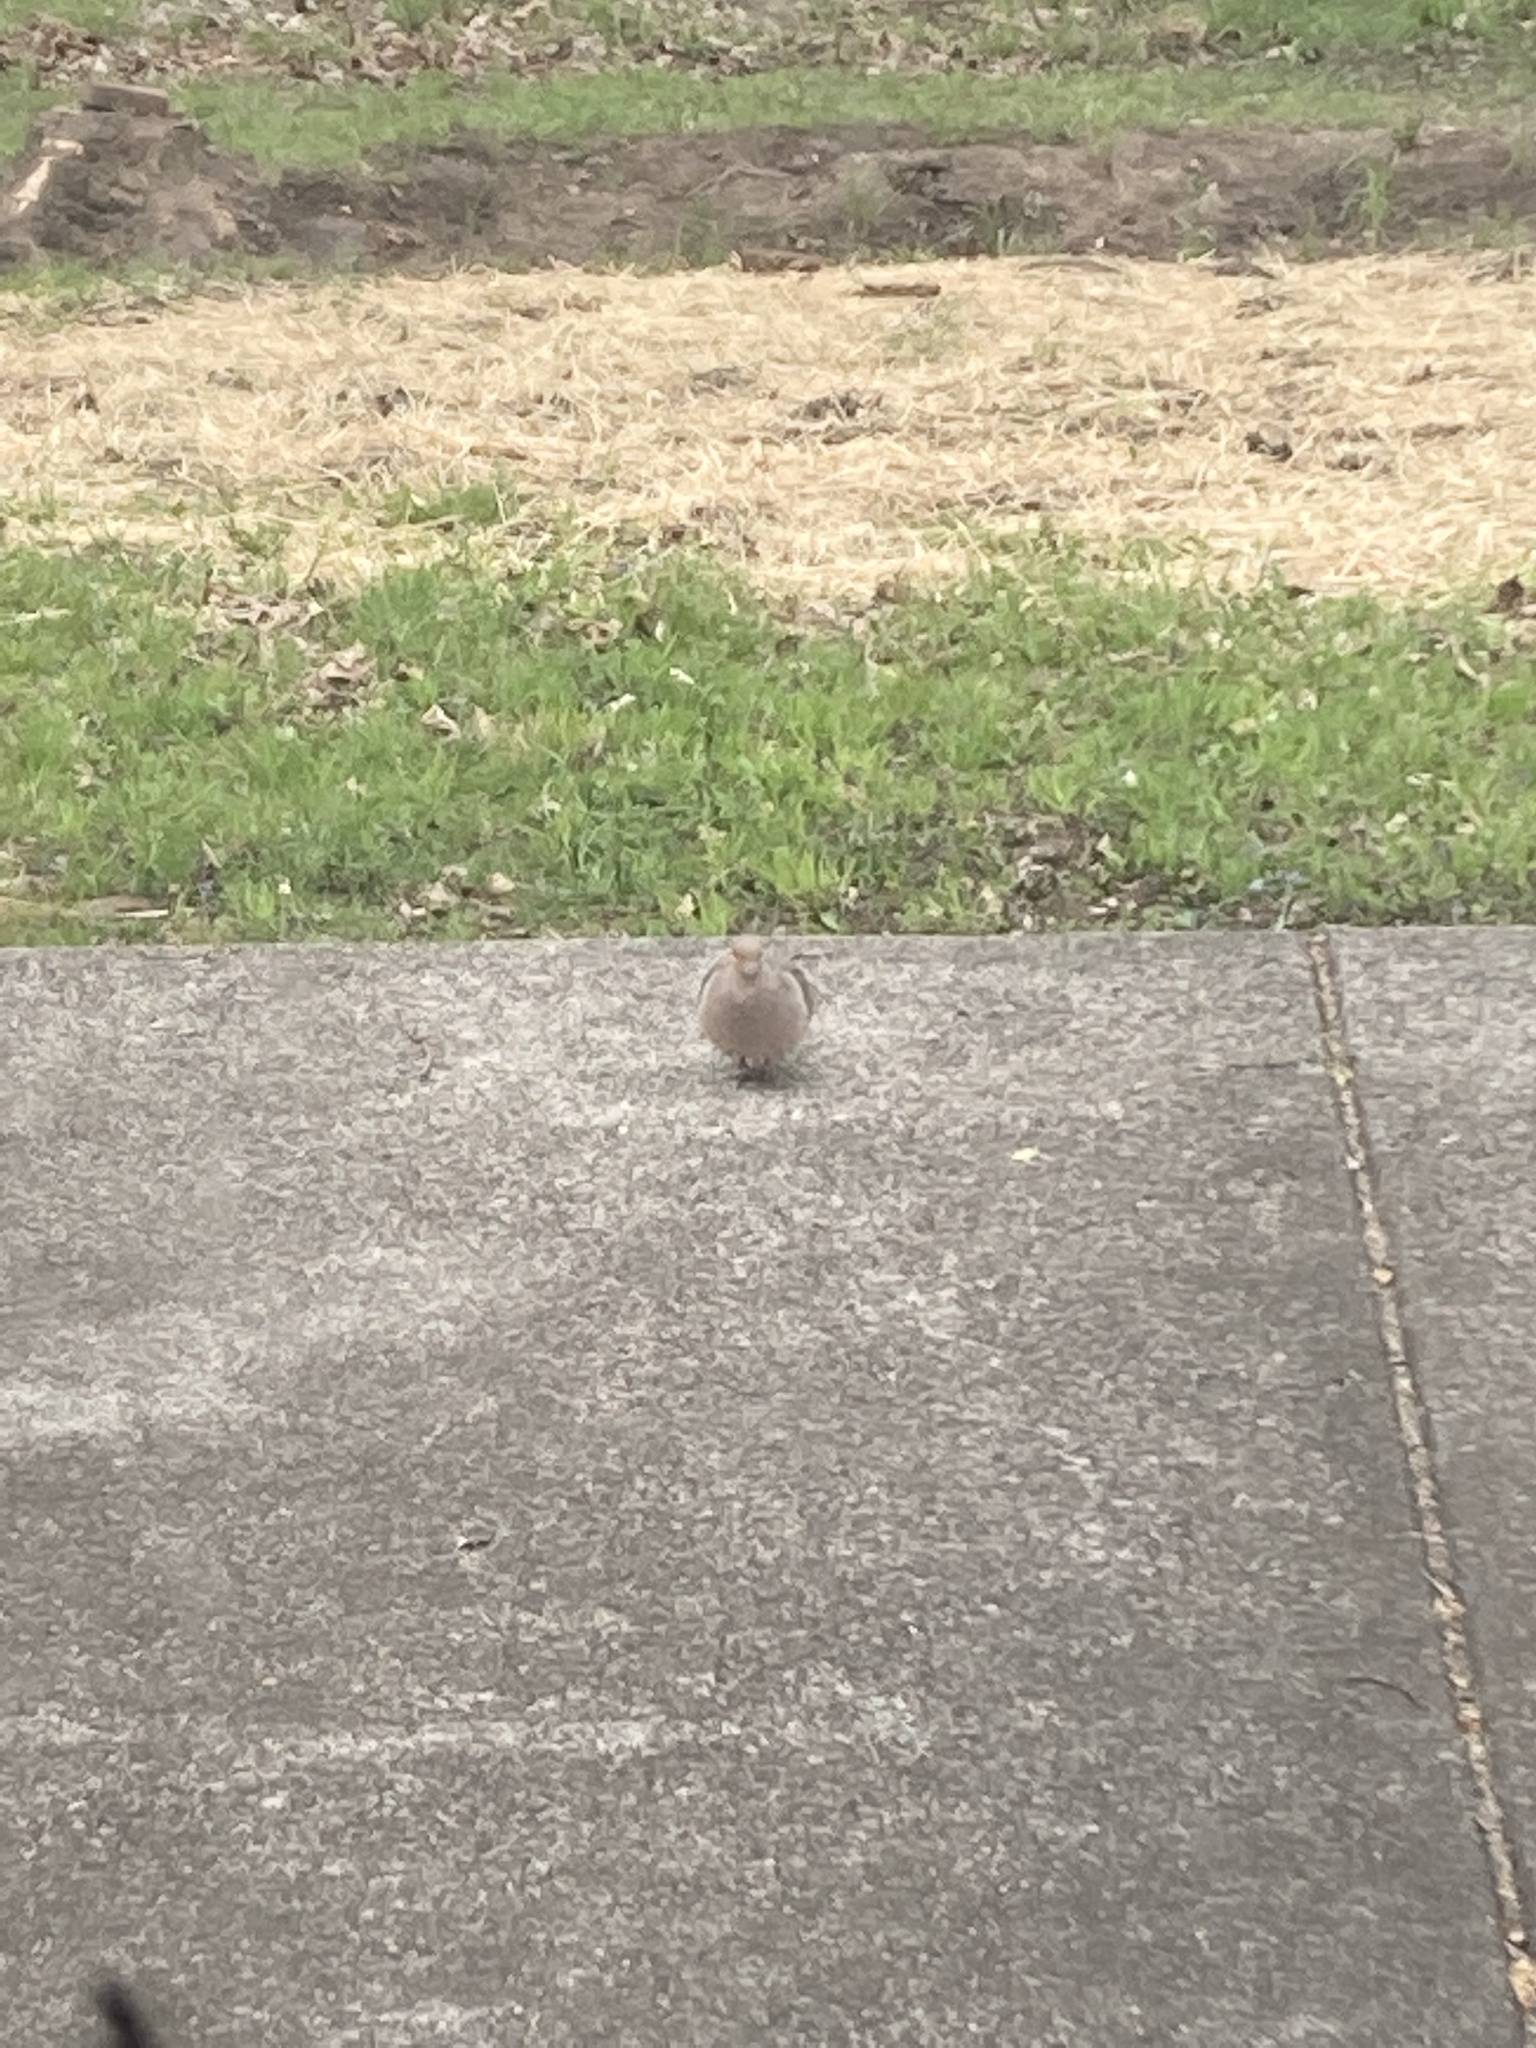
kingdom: Animalia
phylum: Chordata
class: Aves
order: Columbiformes
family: Columbidae
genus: Zenaida
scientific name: Zenaida macroura
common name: Mourning dove
